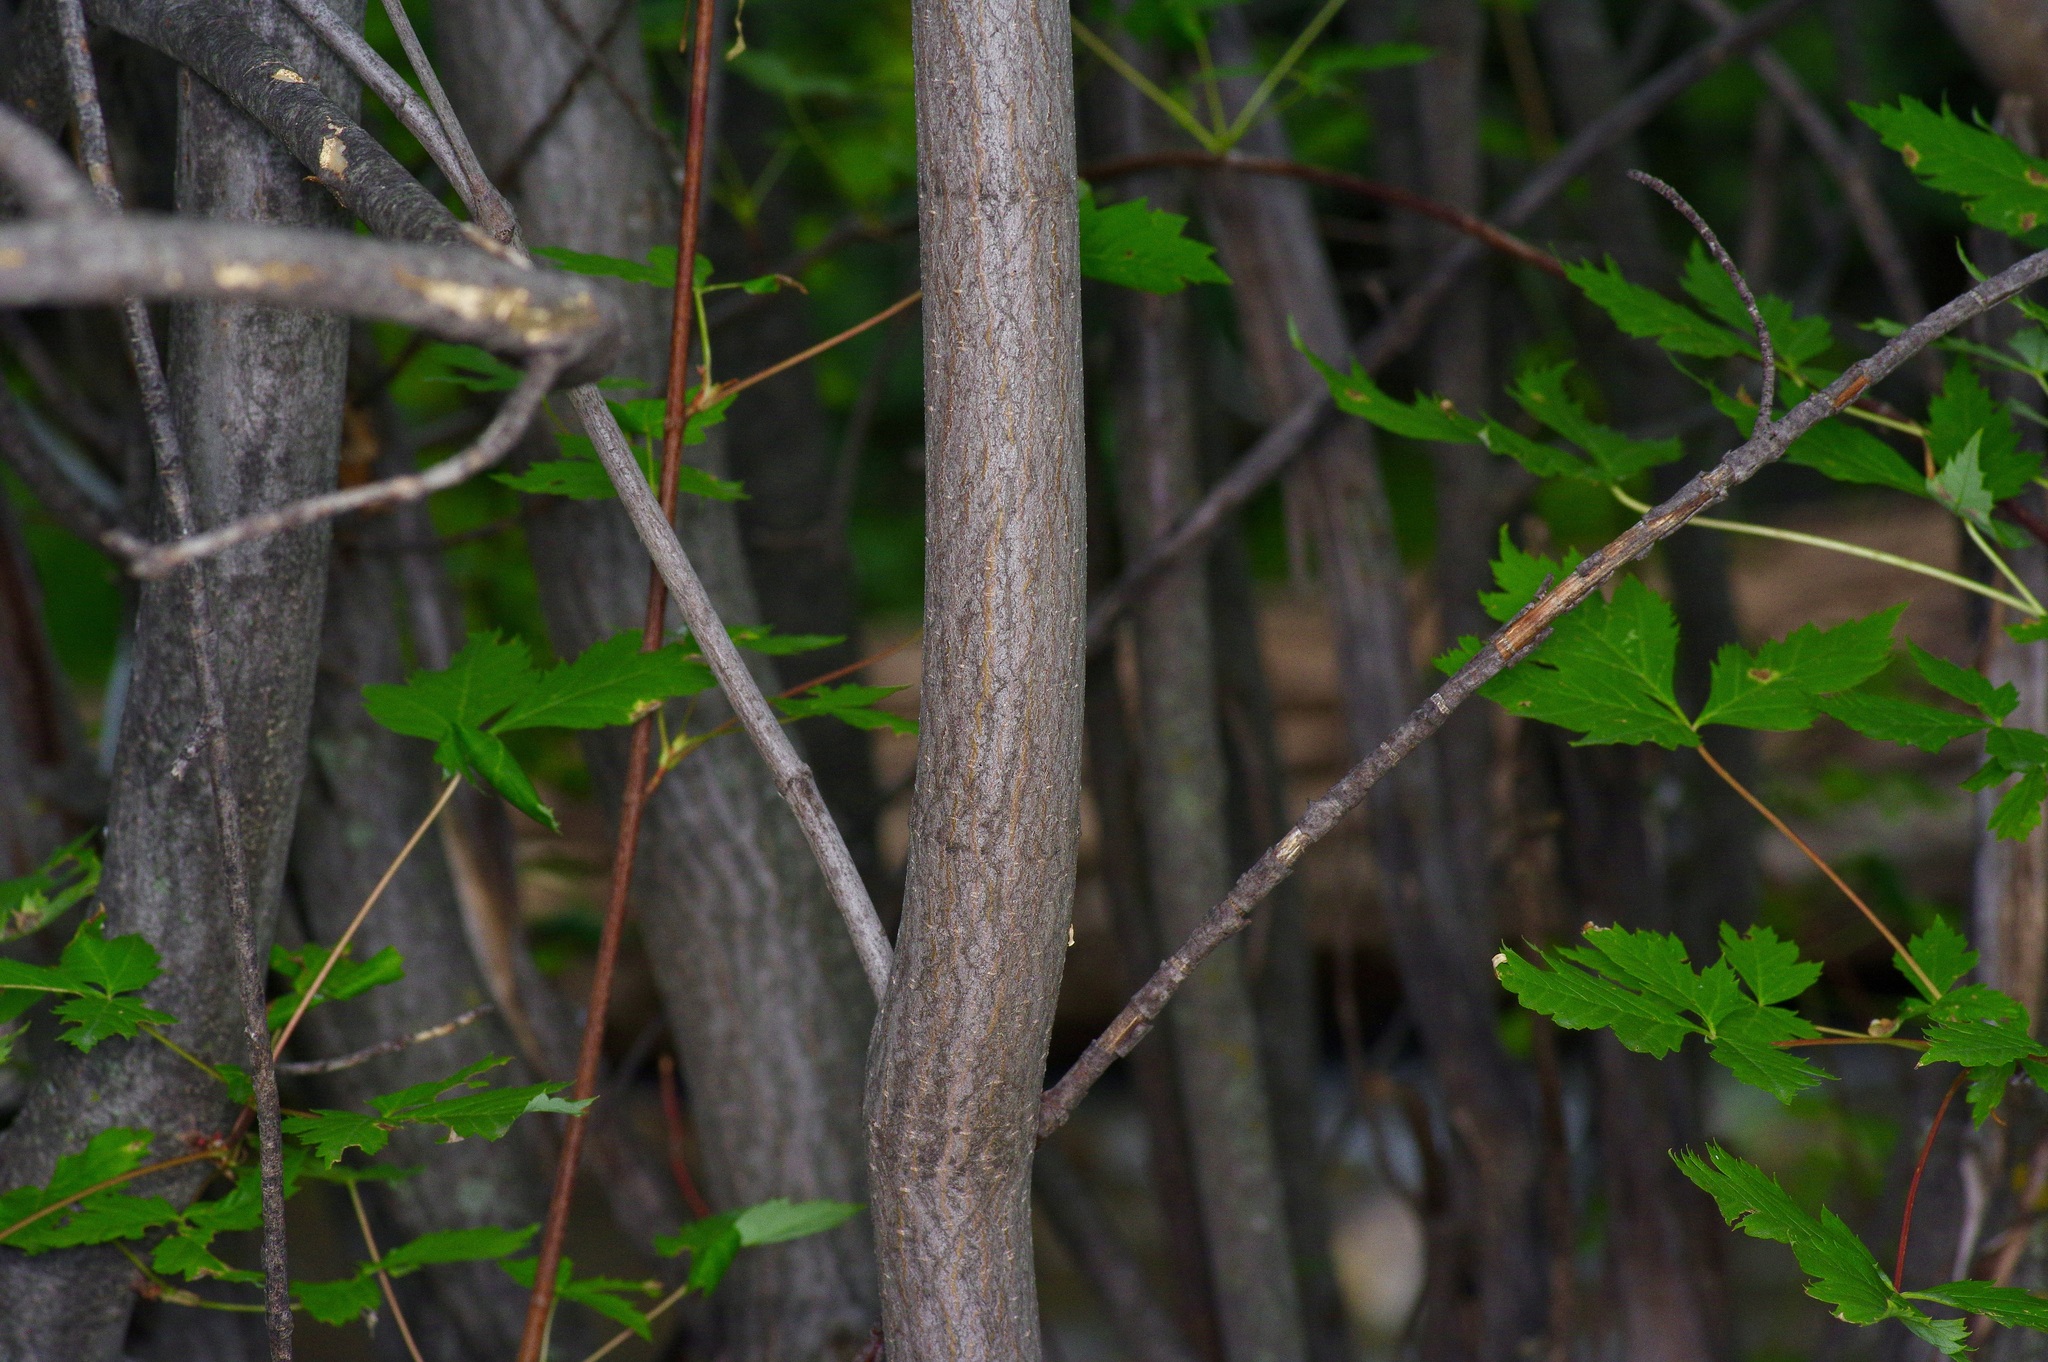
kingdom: Plantae
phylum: Tracheophyta
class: Magnoliopsida
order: Sapindales
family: Sapindaceae
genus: Acer
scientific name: Acer glabrum
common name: Rocky mountain maple
